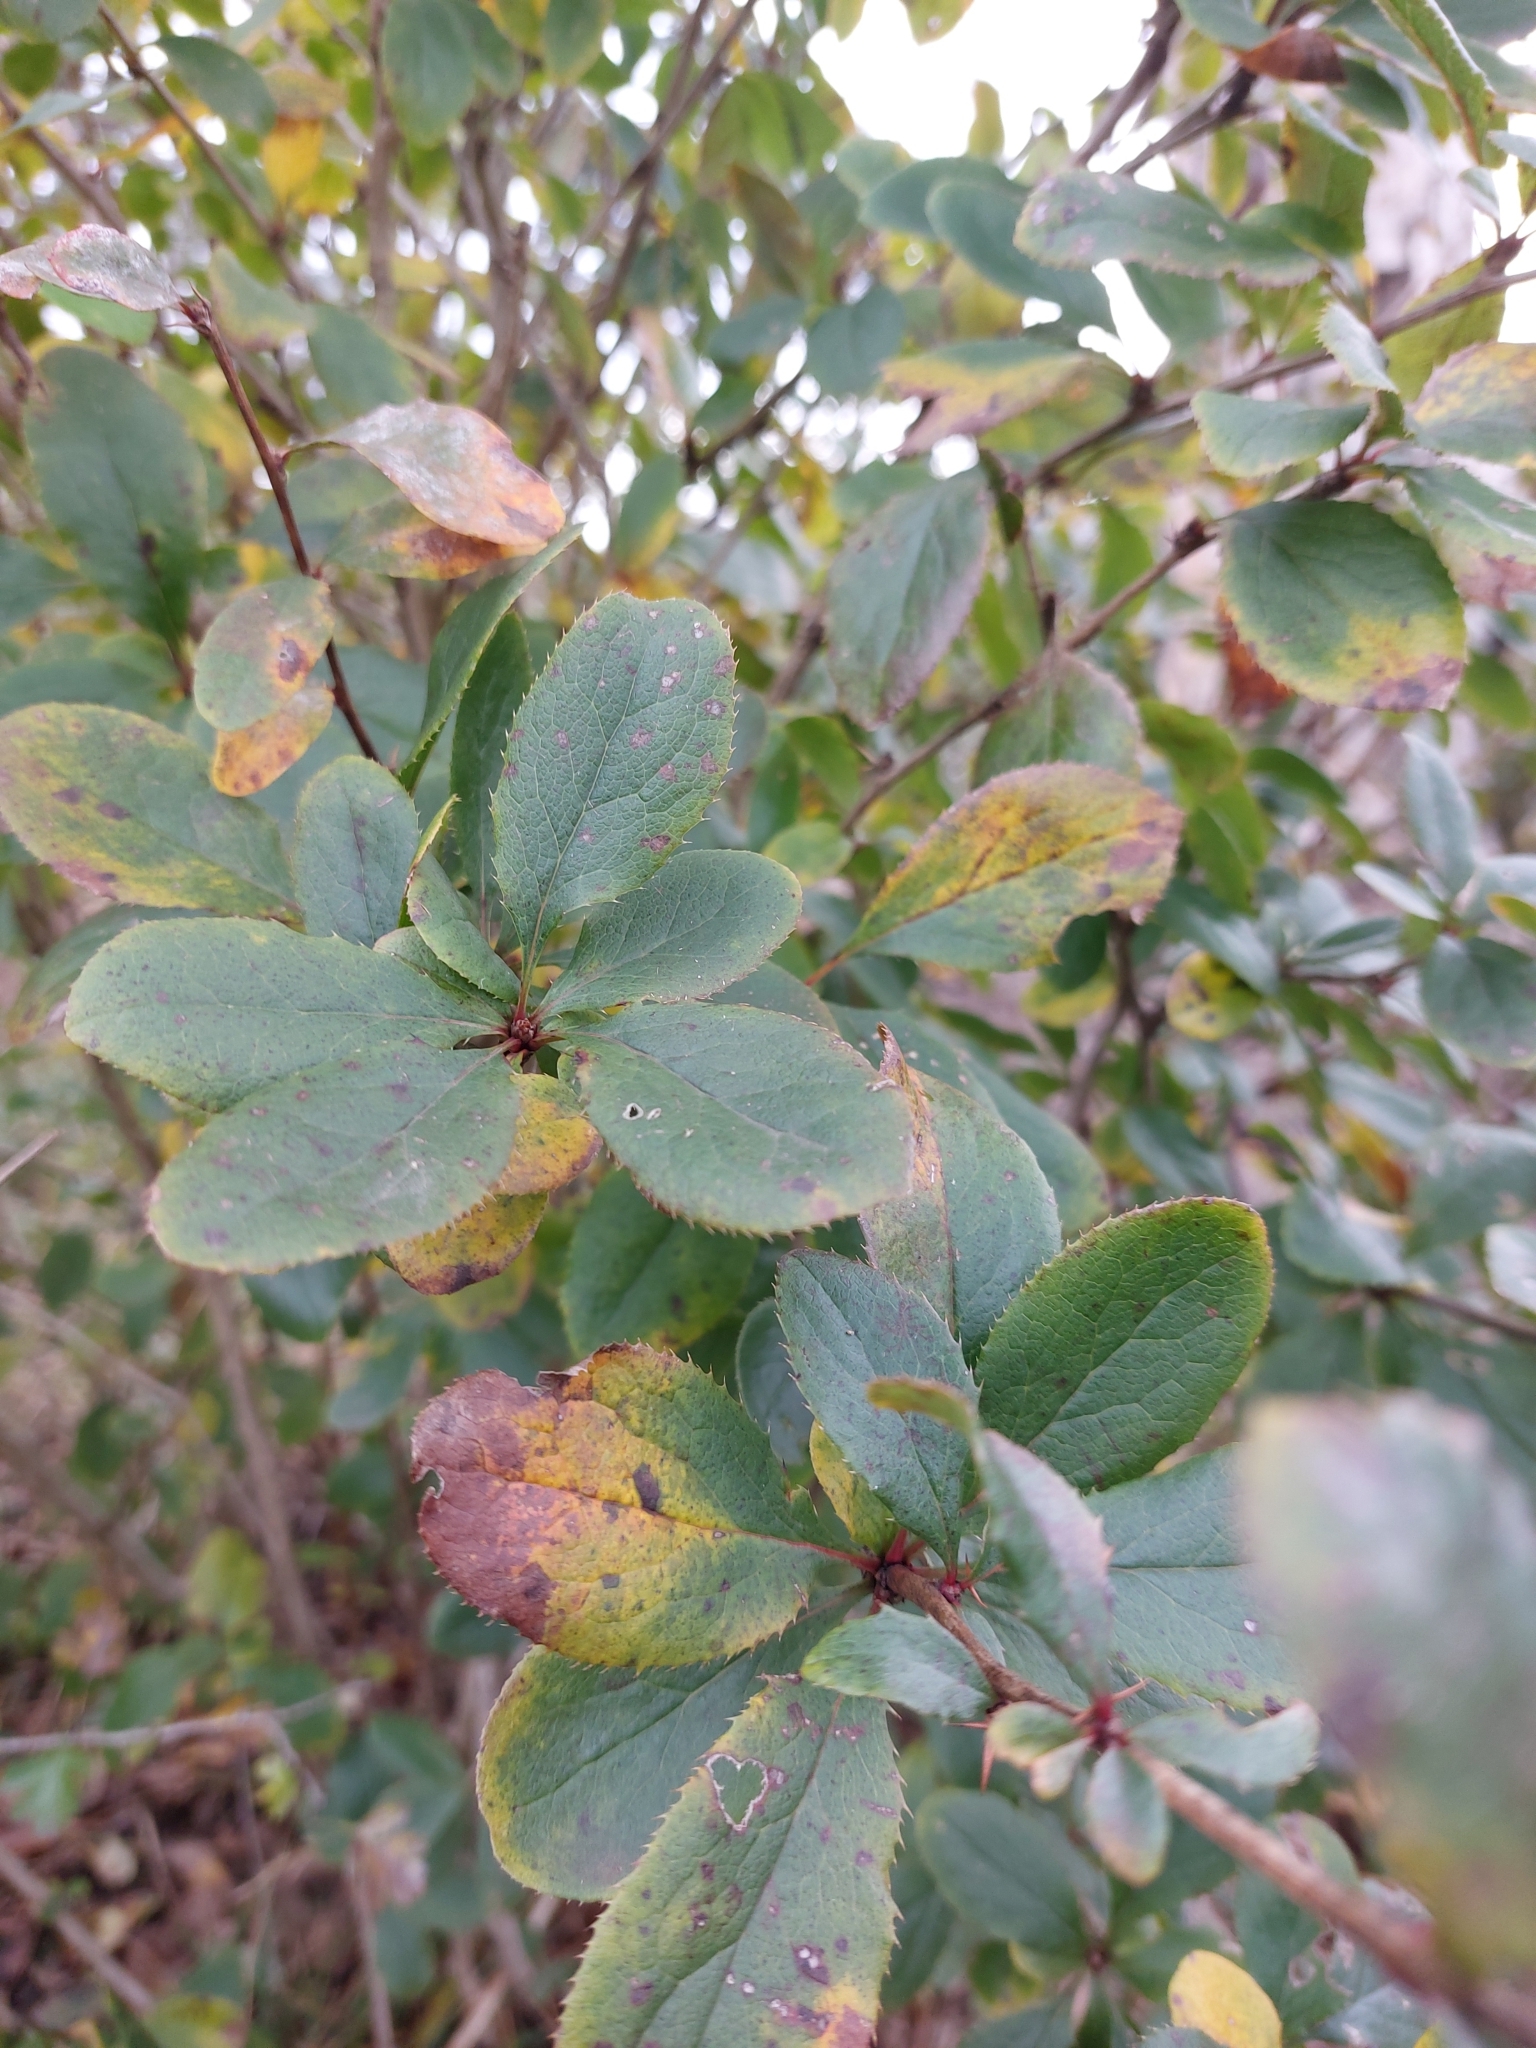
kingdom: Plantae
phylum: Tracheophyta
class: Magnoliopsida
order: Ranunculales
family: Berberidaceae
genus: Berberis
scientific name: Berberis vulgaris
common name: Barberry
